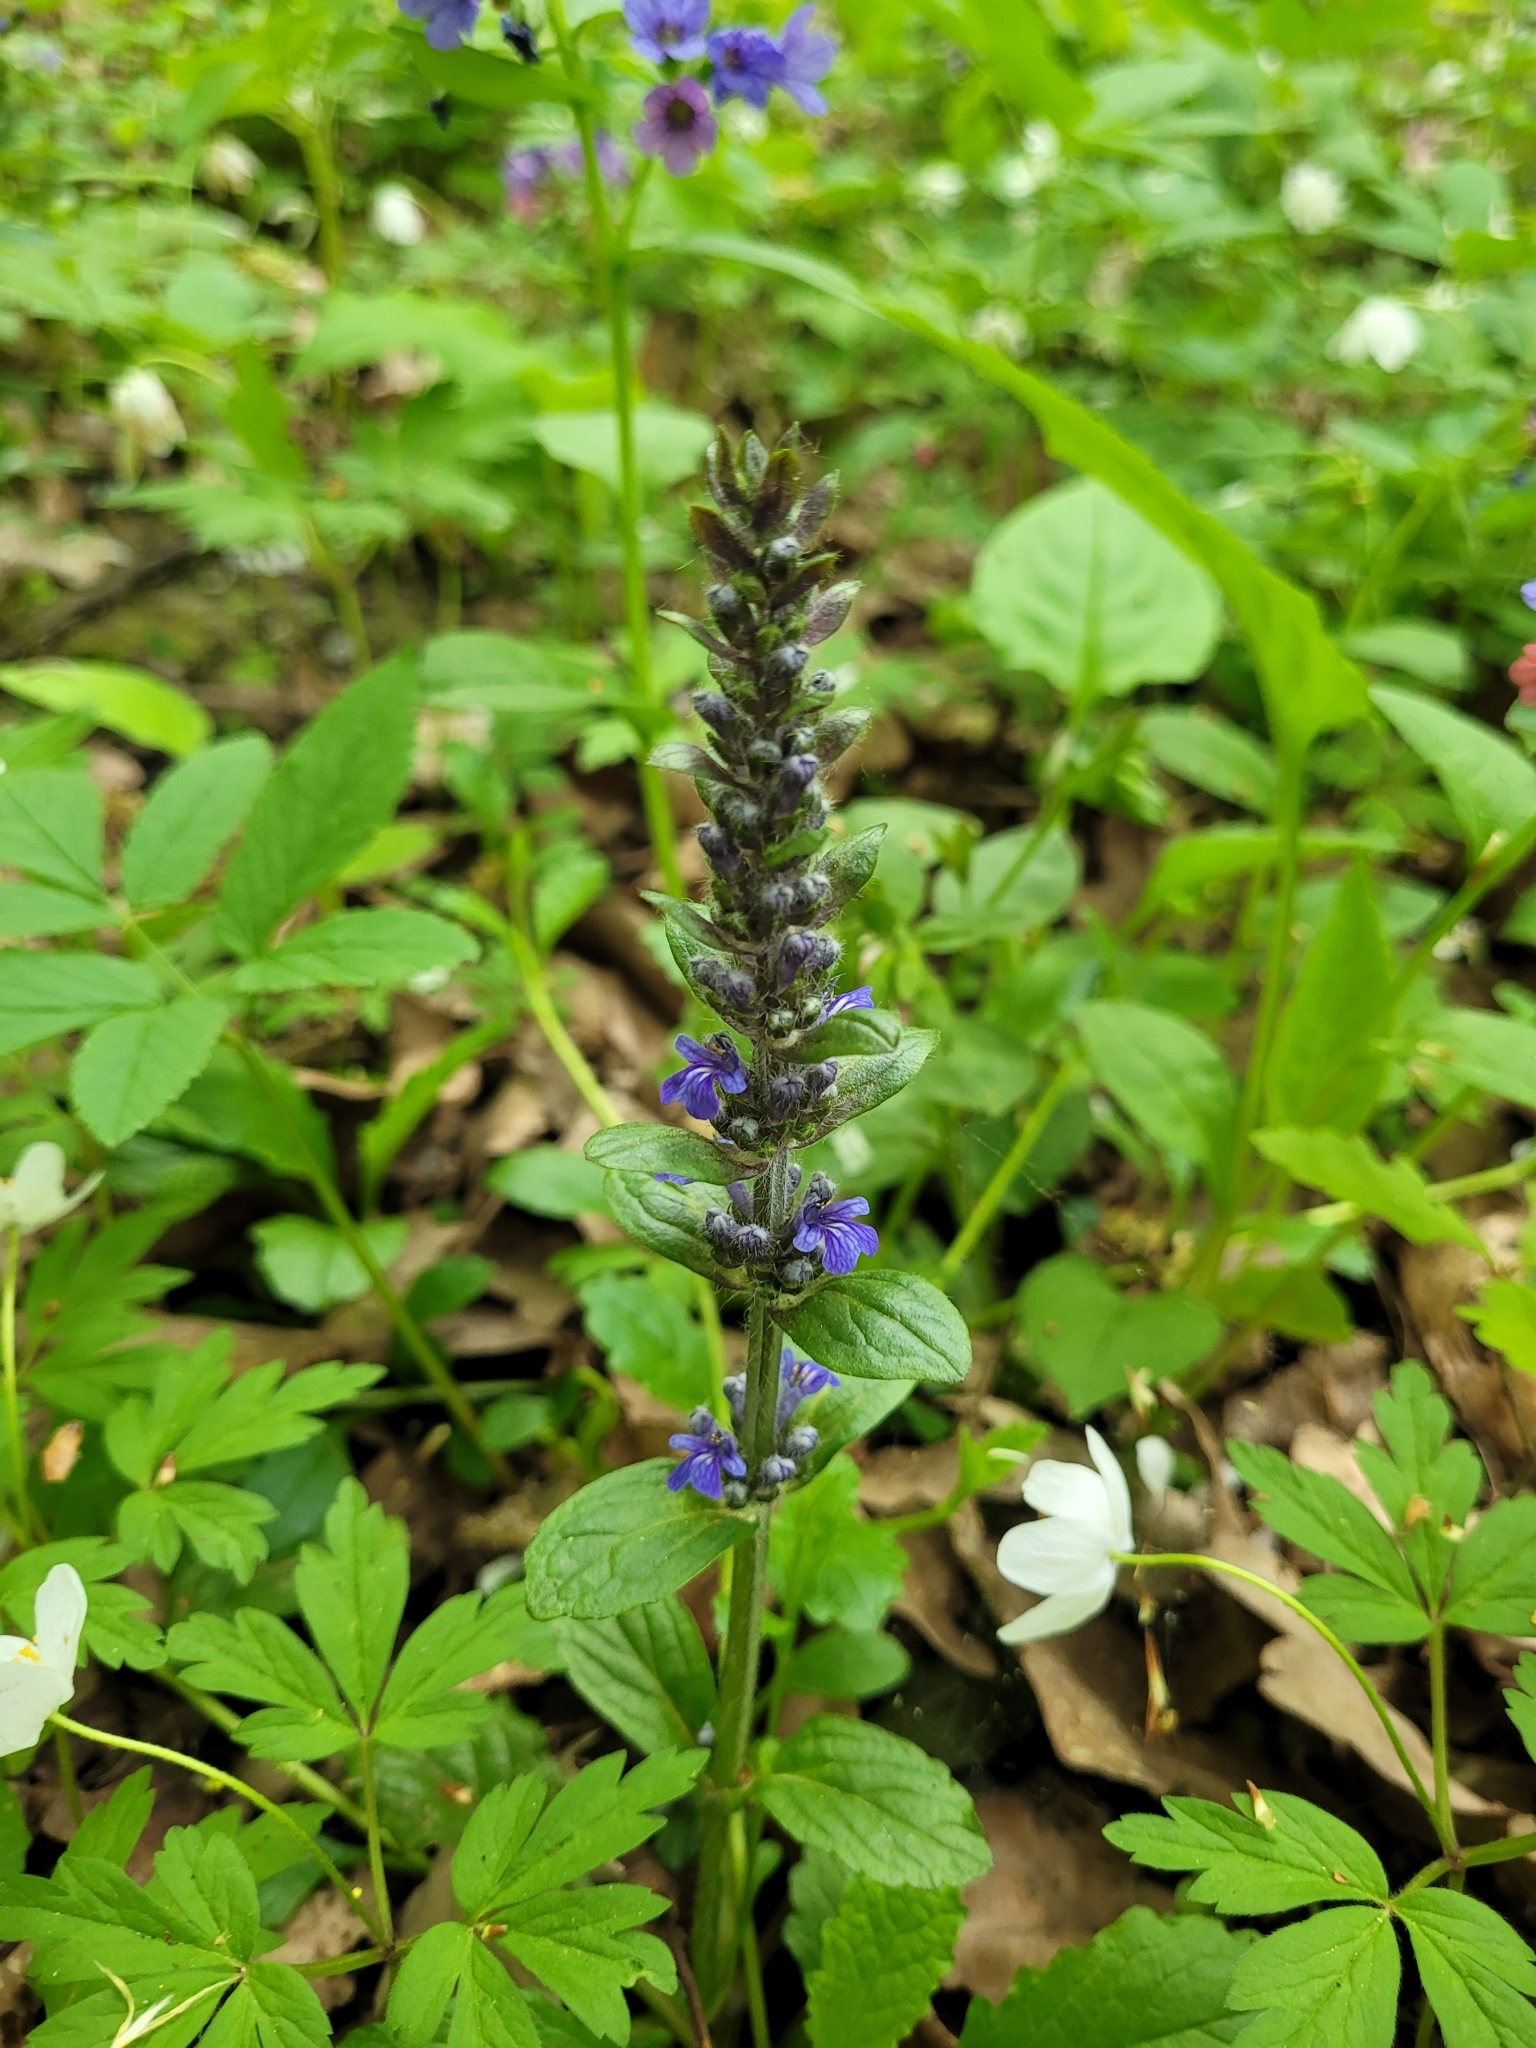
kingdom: Plantae
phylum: Tracheophyta
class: Magnoliopsida
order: Lamiales
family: Lamiaceae
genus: Ajuga
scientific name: Ajuga reptans
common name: Bugle
